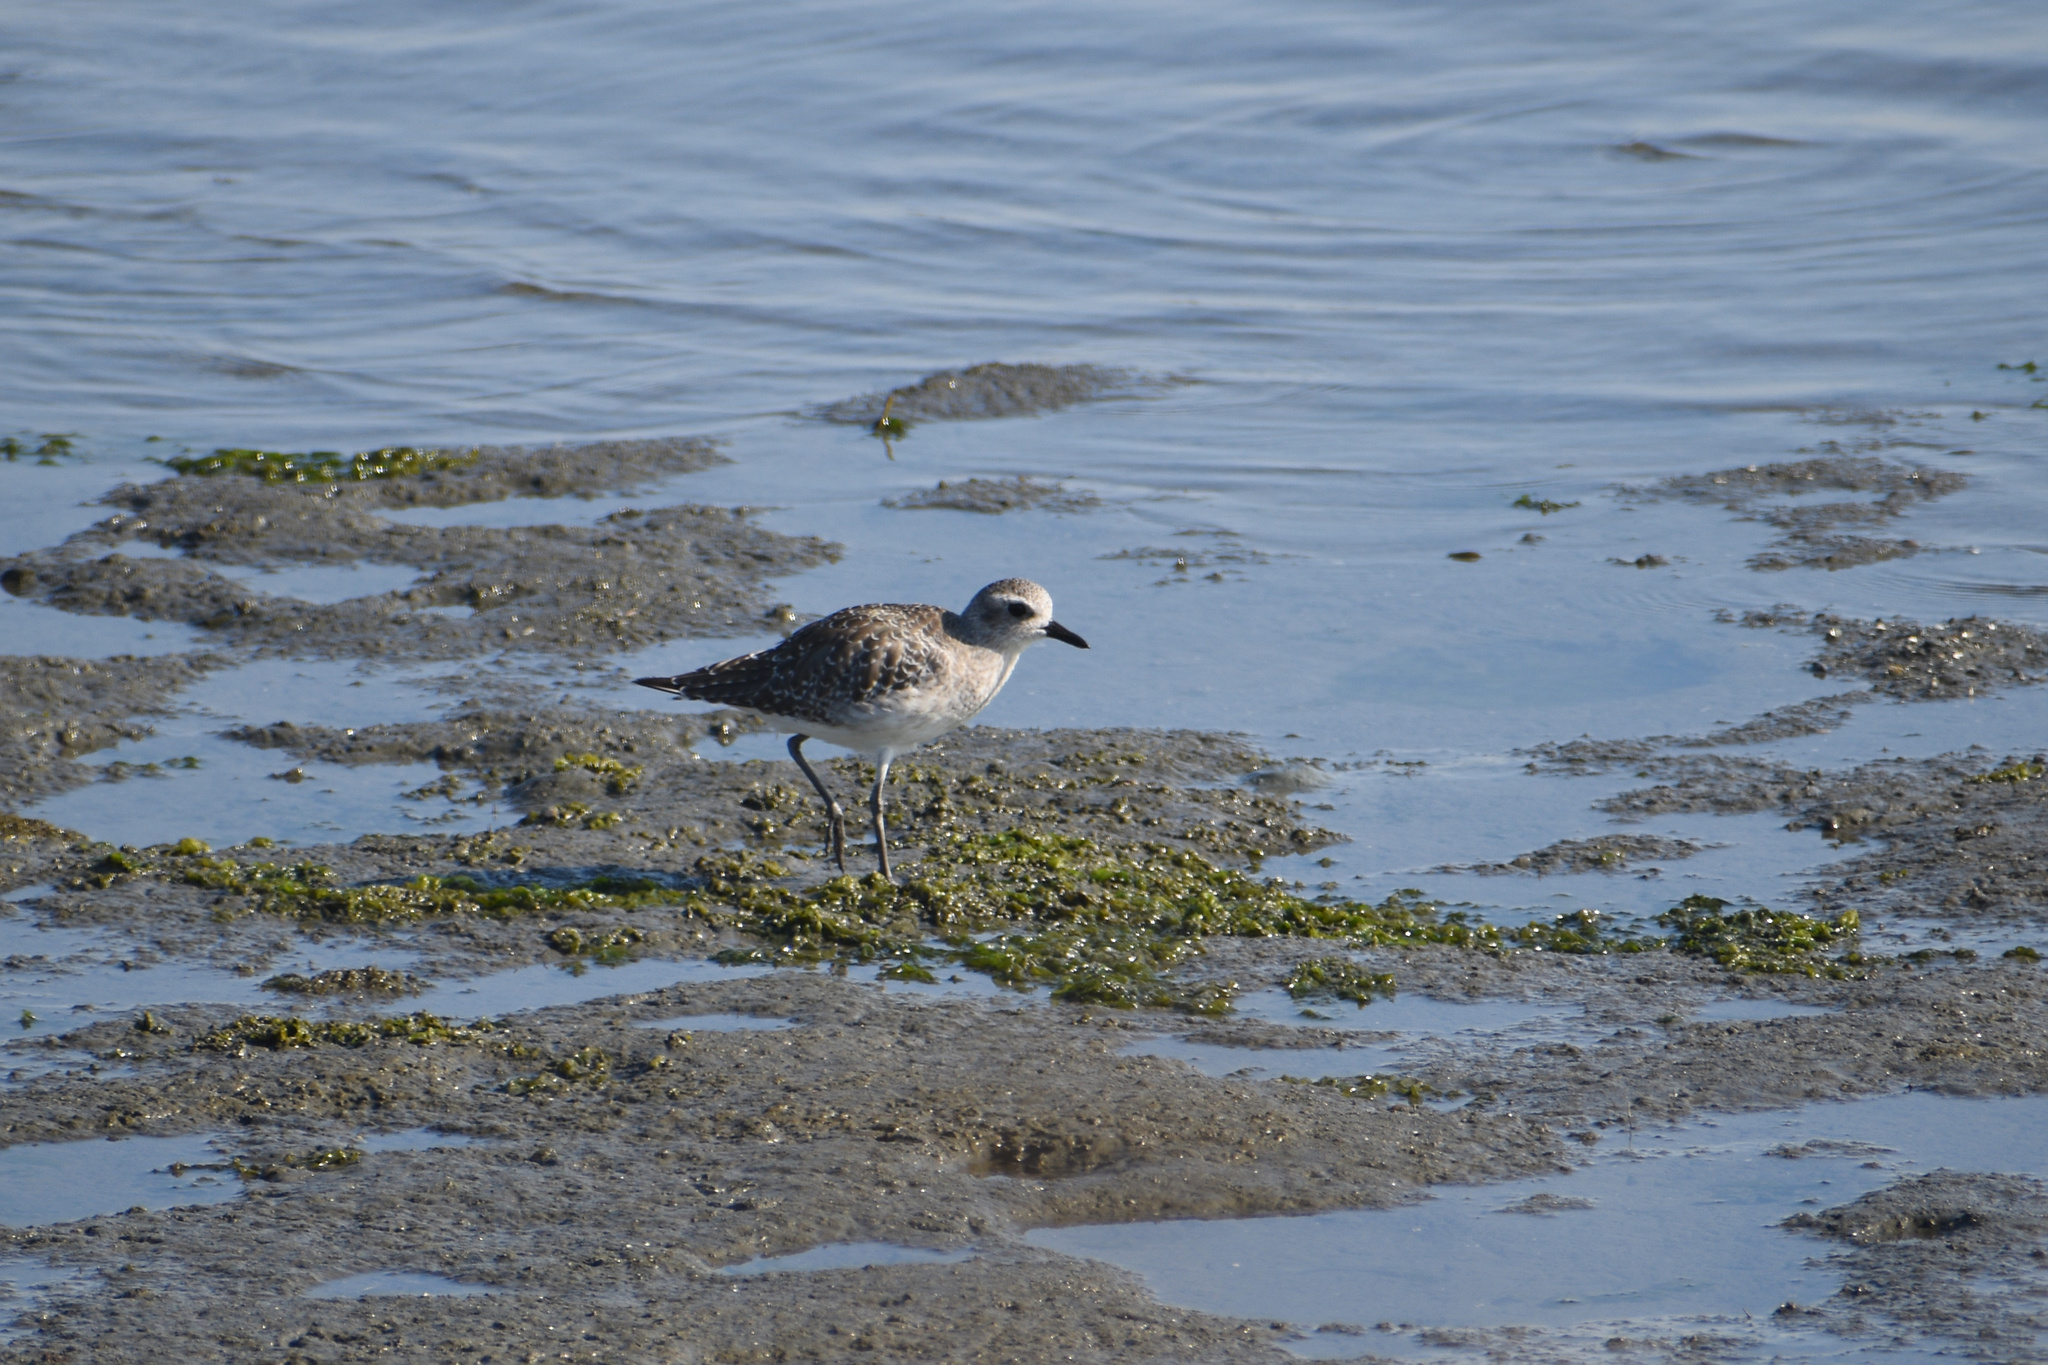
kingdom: Animalia
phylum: Chordata
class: Aves
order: Charadriiformes
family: Charadriidae
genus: Pluvialis
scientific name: Pluvialis squatarola
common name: Grey plover
